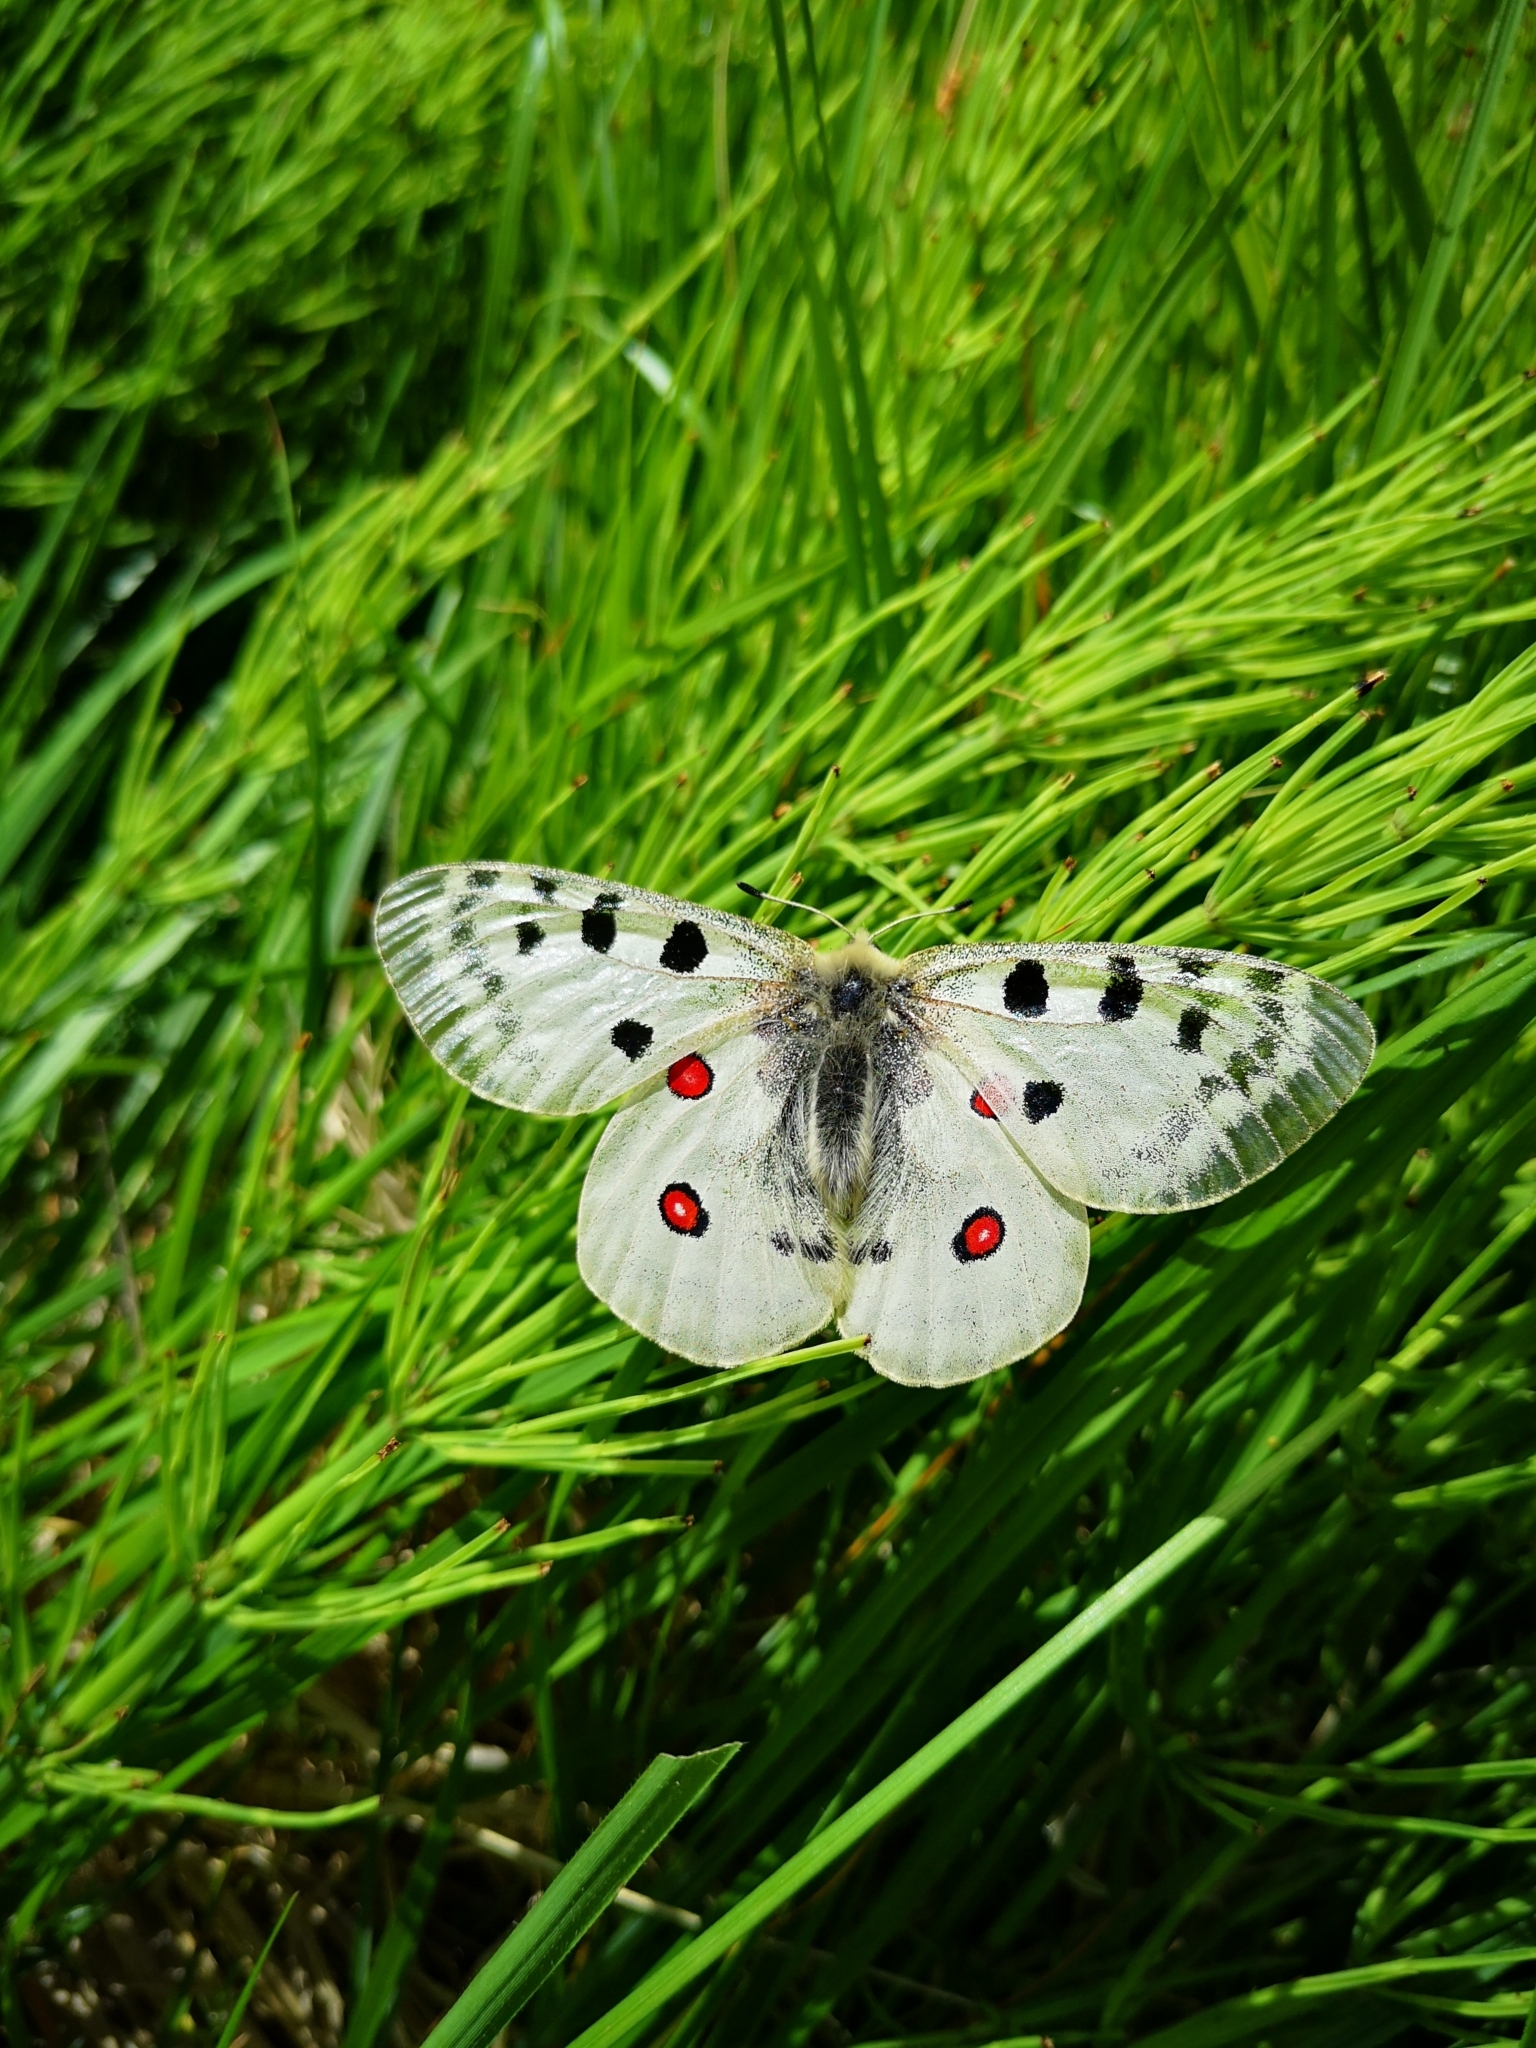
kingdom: Animalia
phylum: Arthropoda
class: Insecta
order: Lepidoptera
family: Papilionidae
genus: Parnassius
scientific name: Parnassius apollo
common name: Apollo
